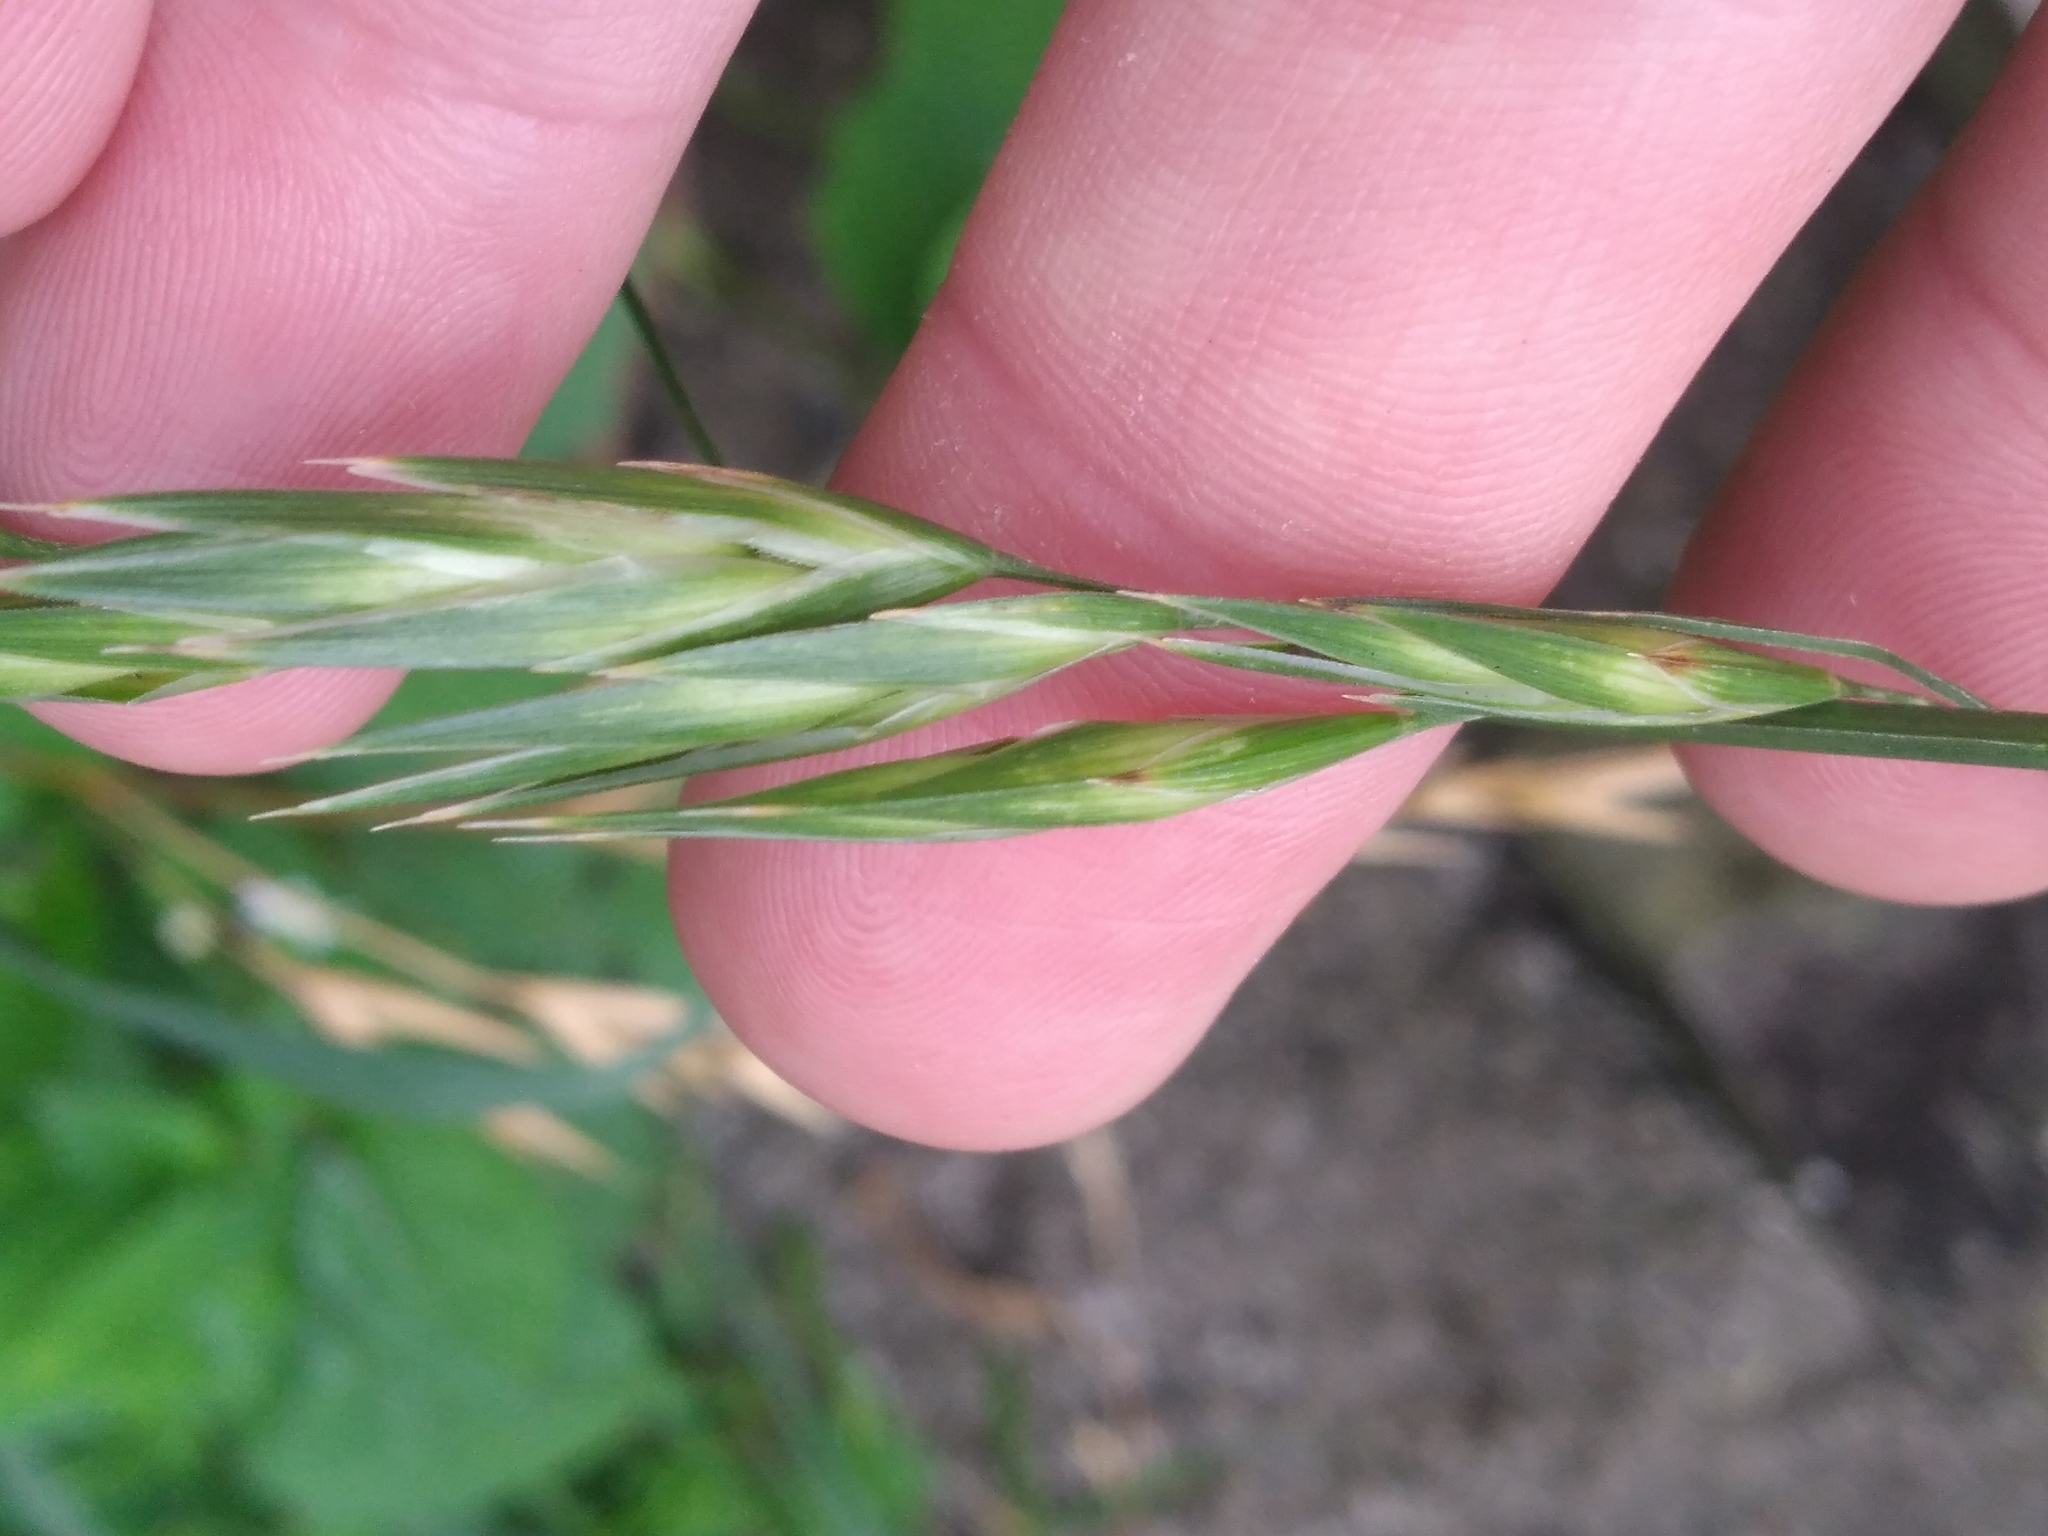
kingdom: Plantae
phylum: Tracheophyta
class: Liliopsida
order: Poales
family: Poaceae
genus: Bromus
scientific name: Bromus catharticus
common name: Rescuegrass
